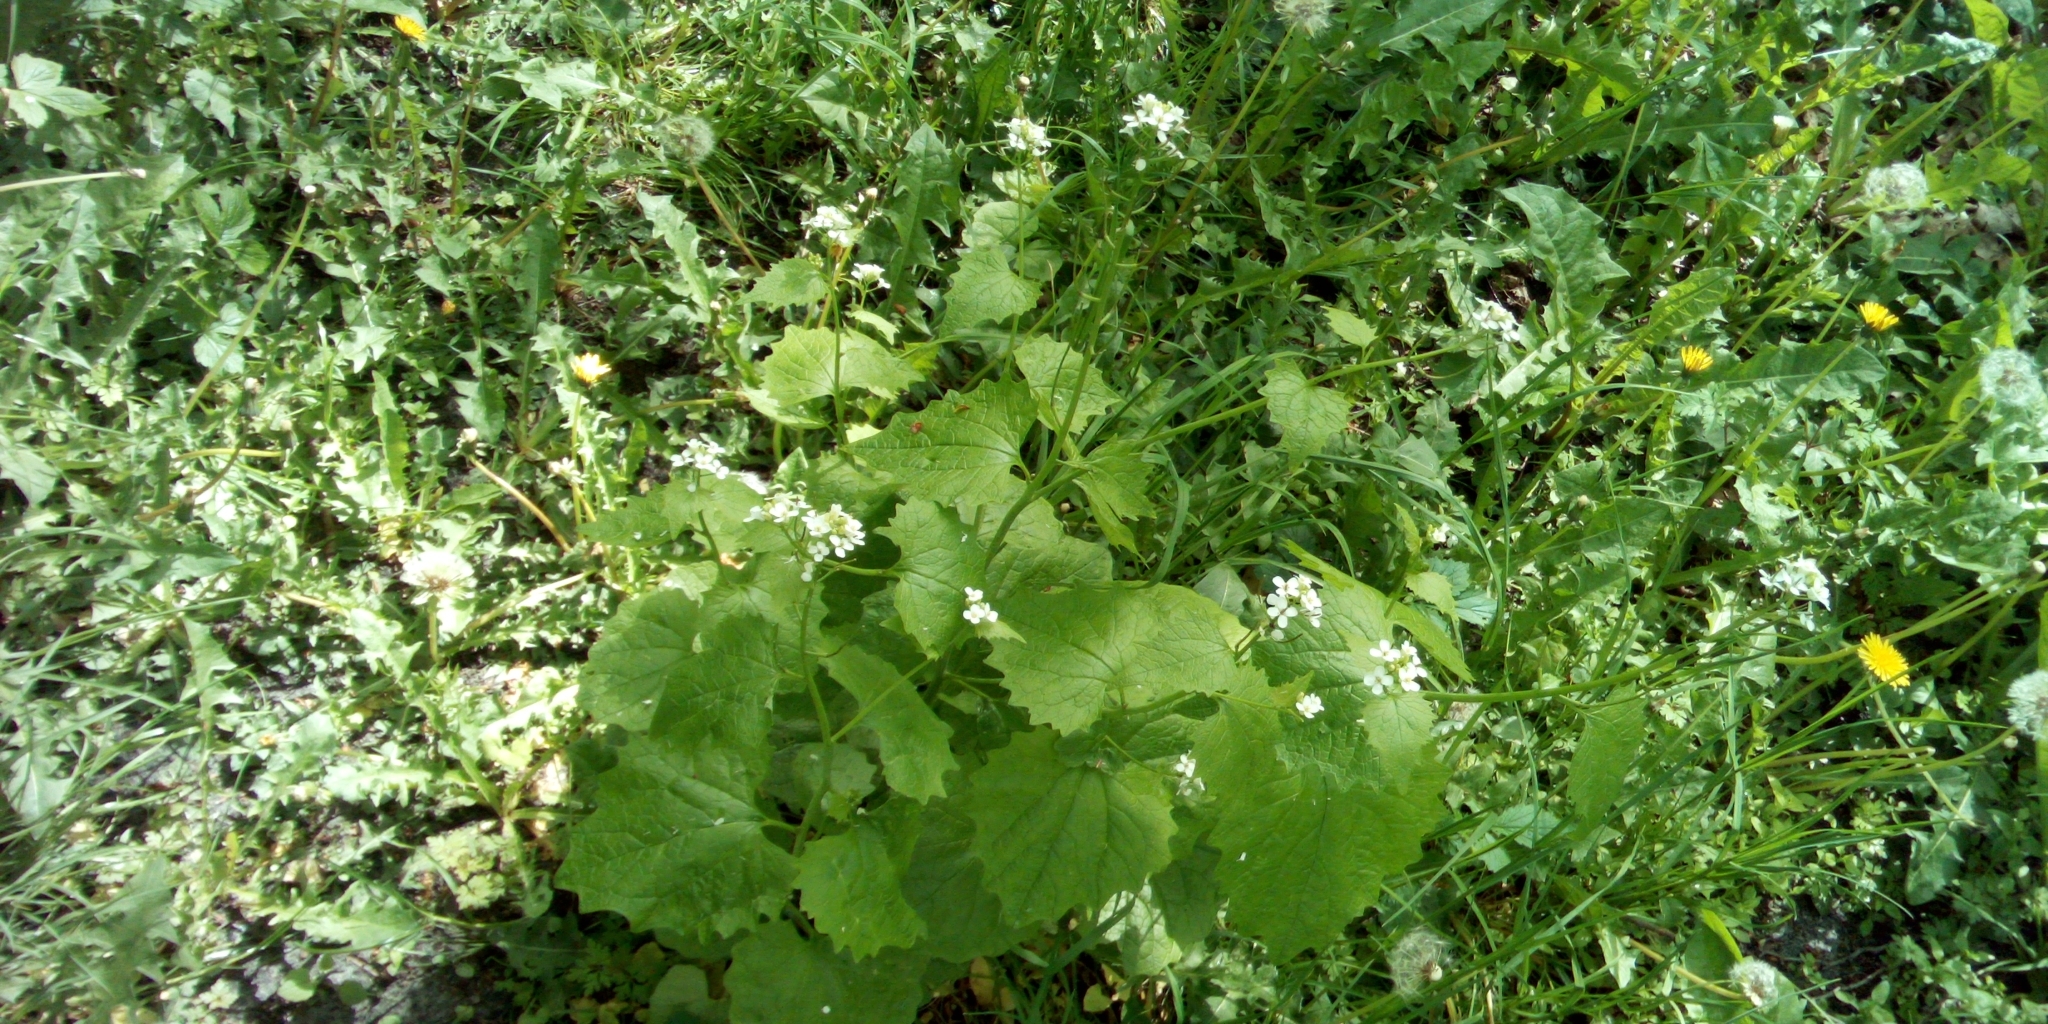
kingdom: Plantae
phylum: Tracheophyta
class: Magnoliopsida
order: Brassicales
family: Brassicaceae
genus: Alliaria
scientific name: Alliaria petiolata
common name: Garlic mustard
